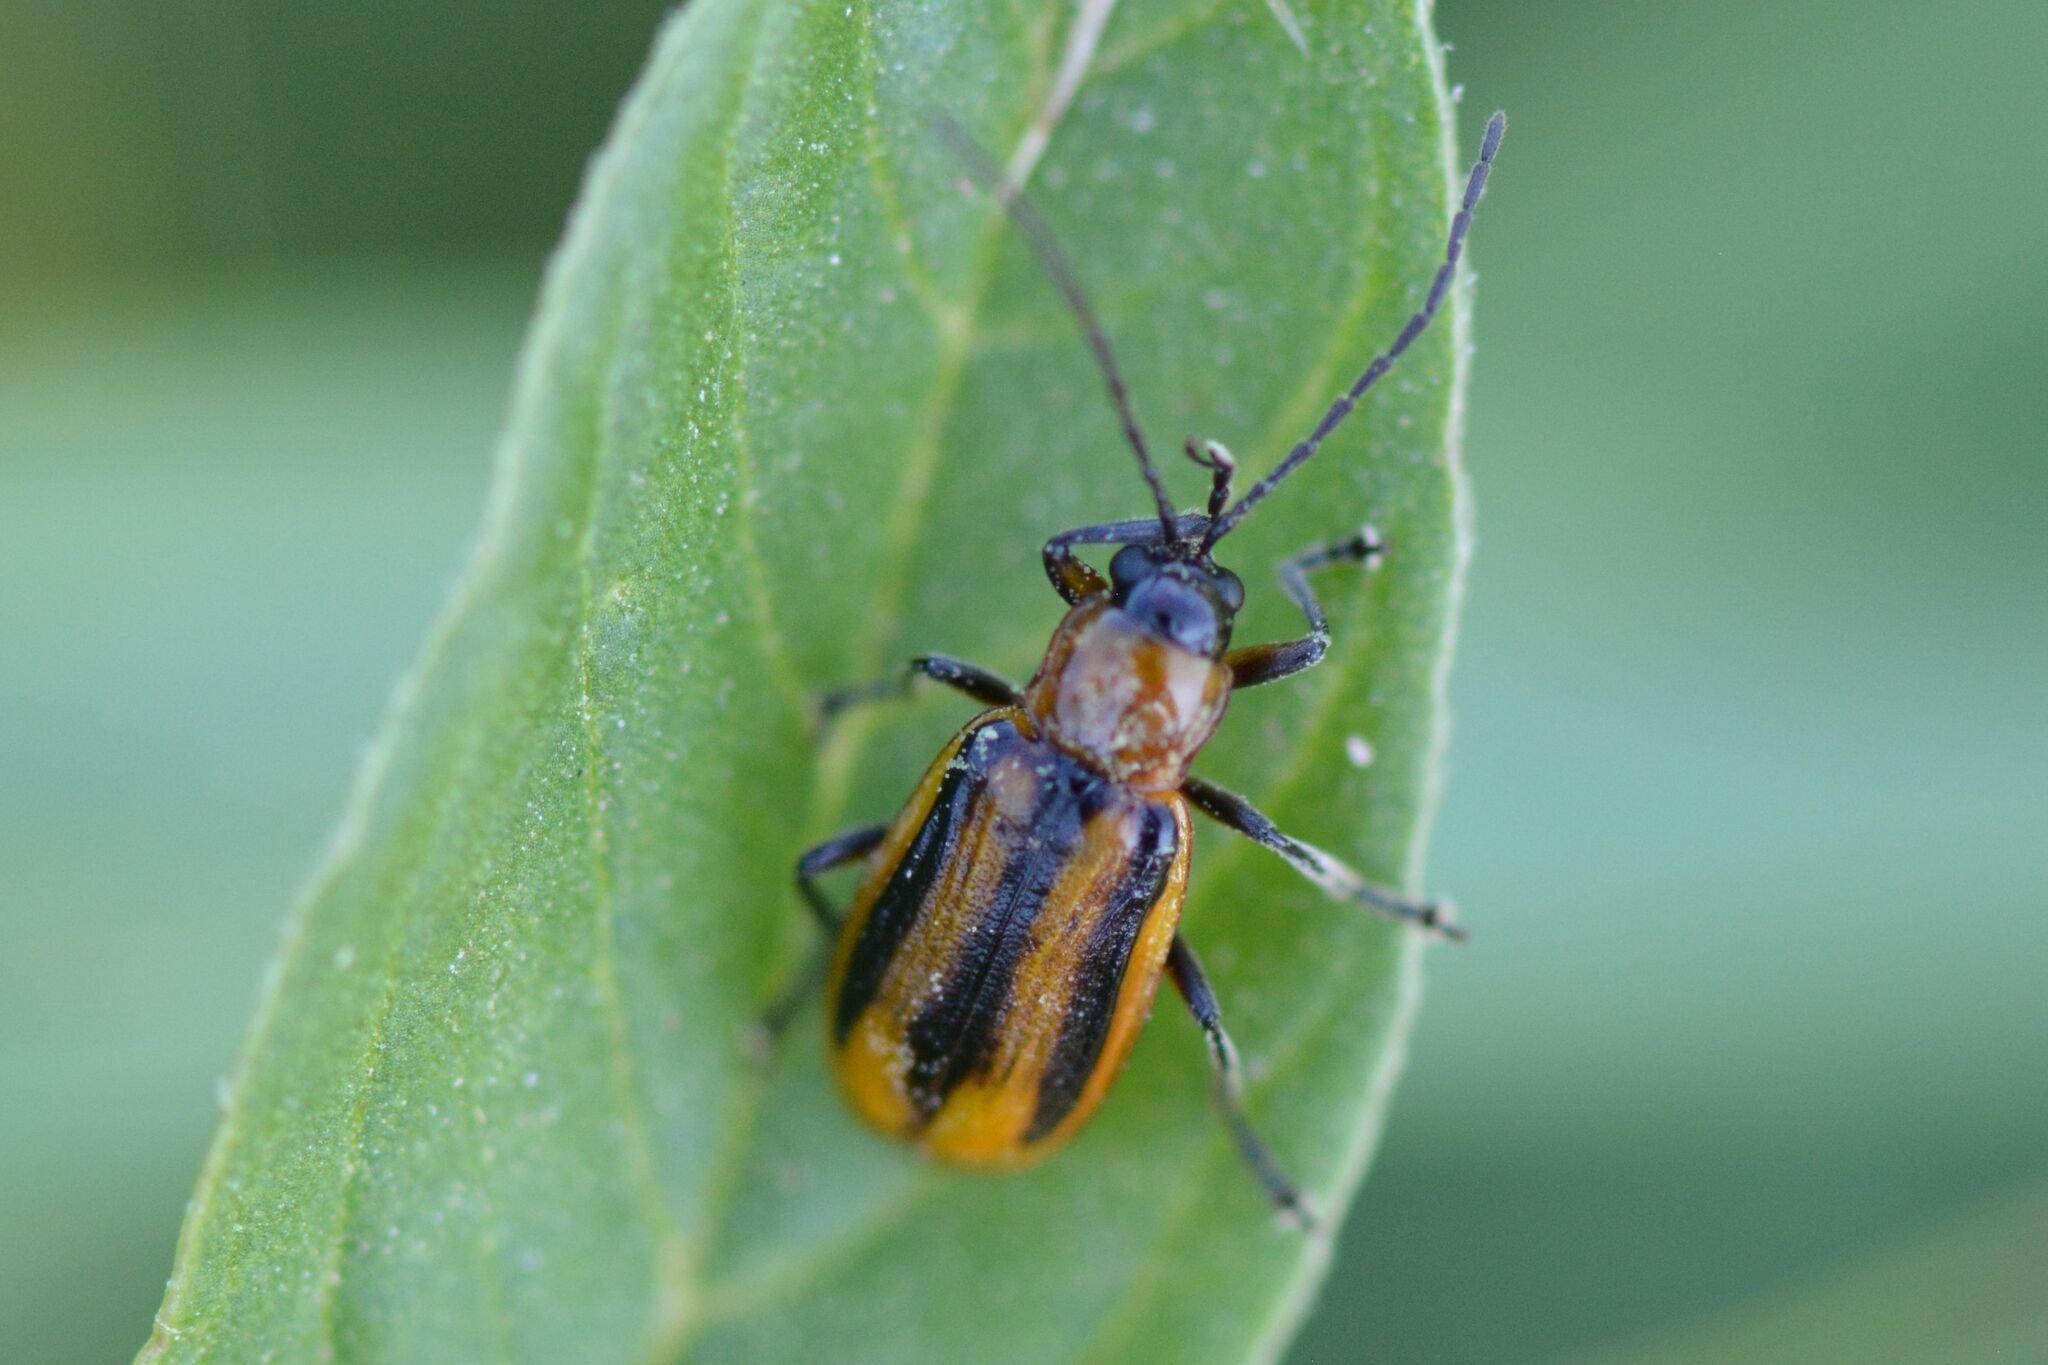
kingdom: Animalia
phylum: Arthropoda
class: Insecta
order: Coleoptera
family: Chrysomelidae
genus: Diabrotica
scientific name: Diabrotica virgifera
